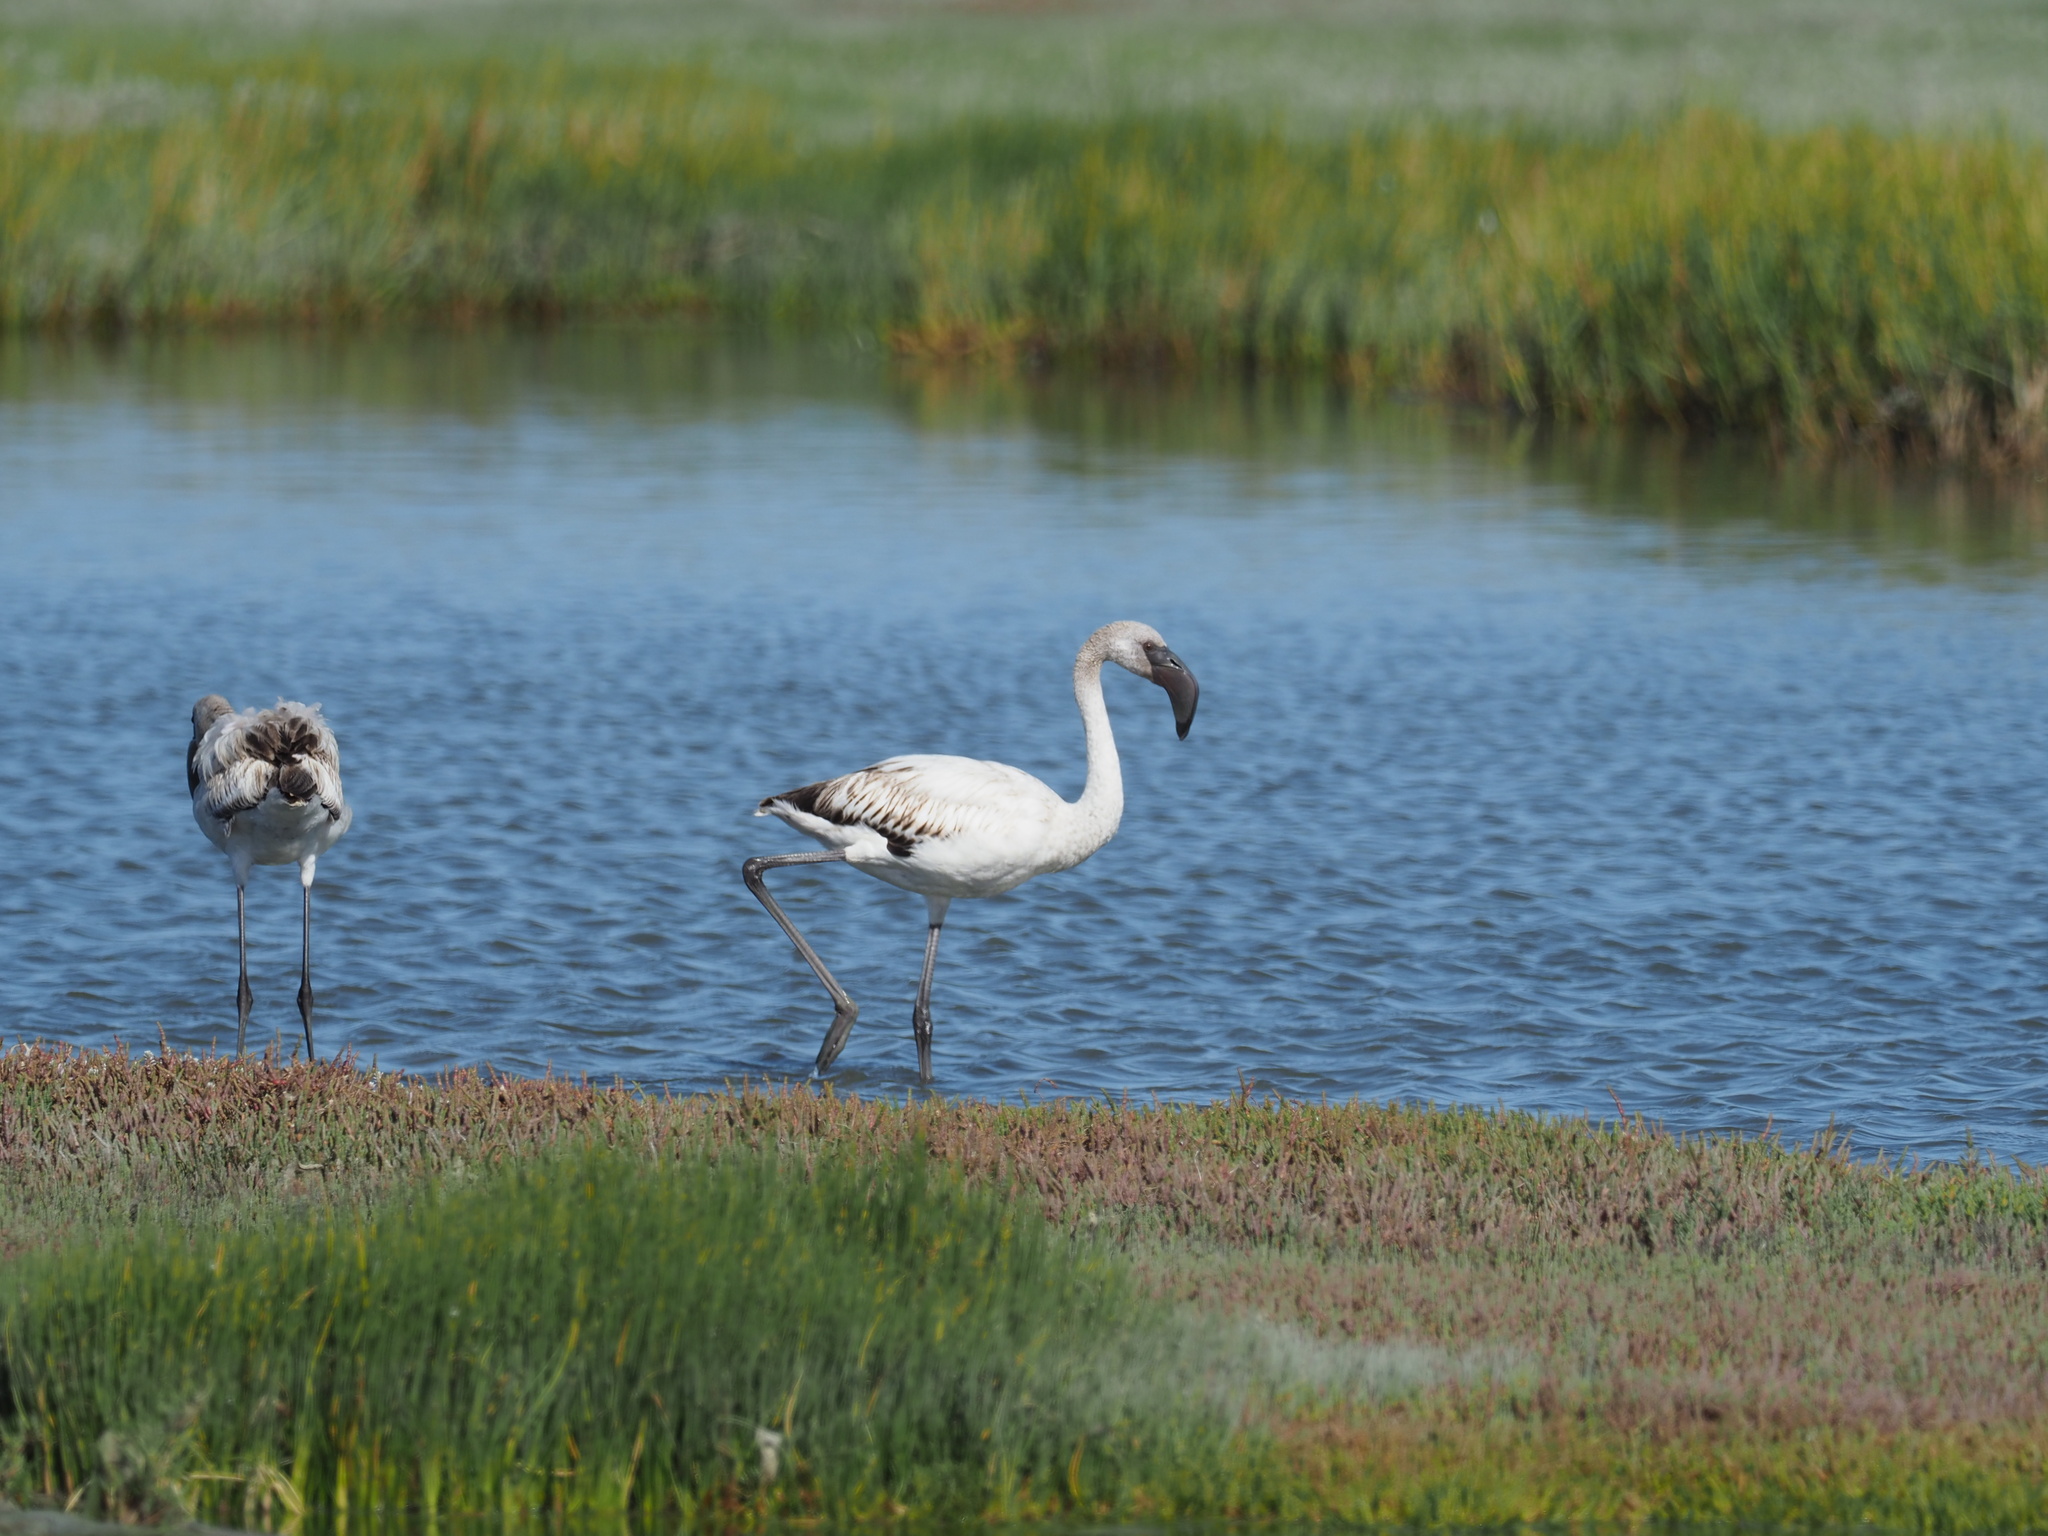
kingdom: Animalia
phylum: Chordata
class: Aves
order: Phoenicopteriformes
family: Phoenicopteridae
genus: Phoeniconaias
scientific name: Phoeniconaias minor
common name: Lesser flamingo
